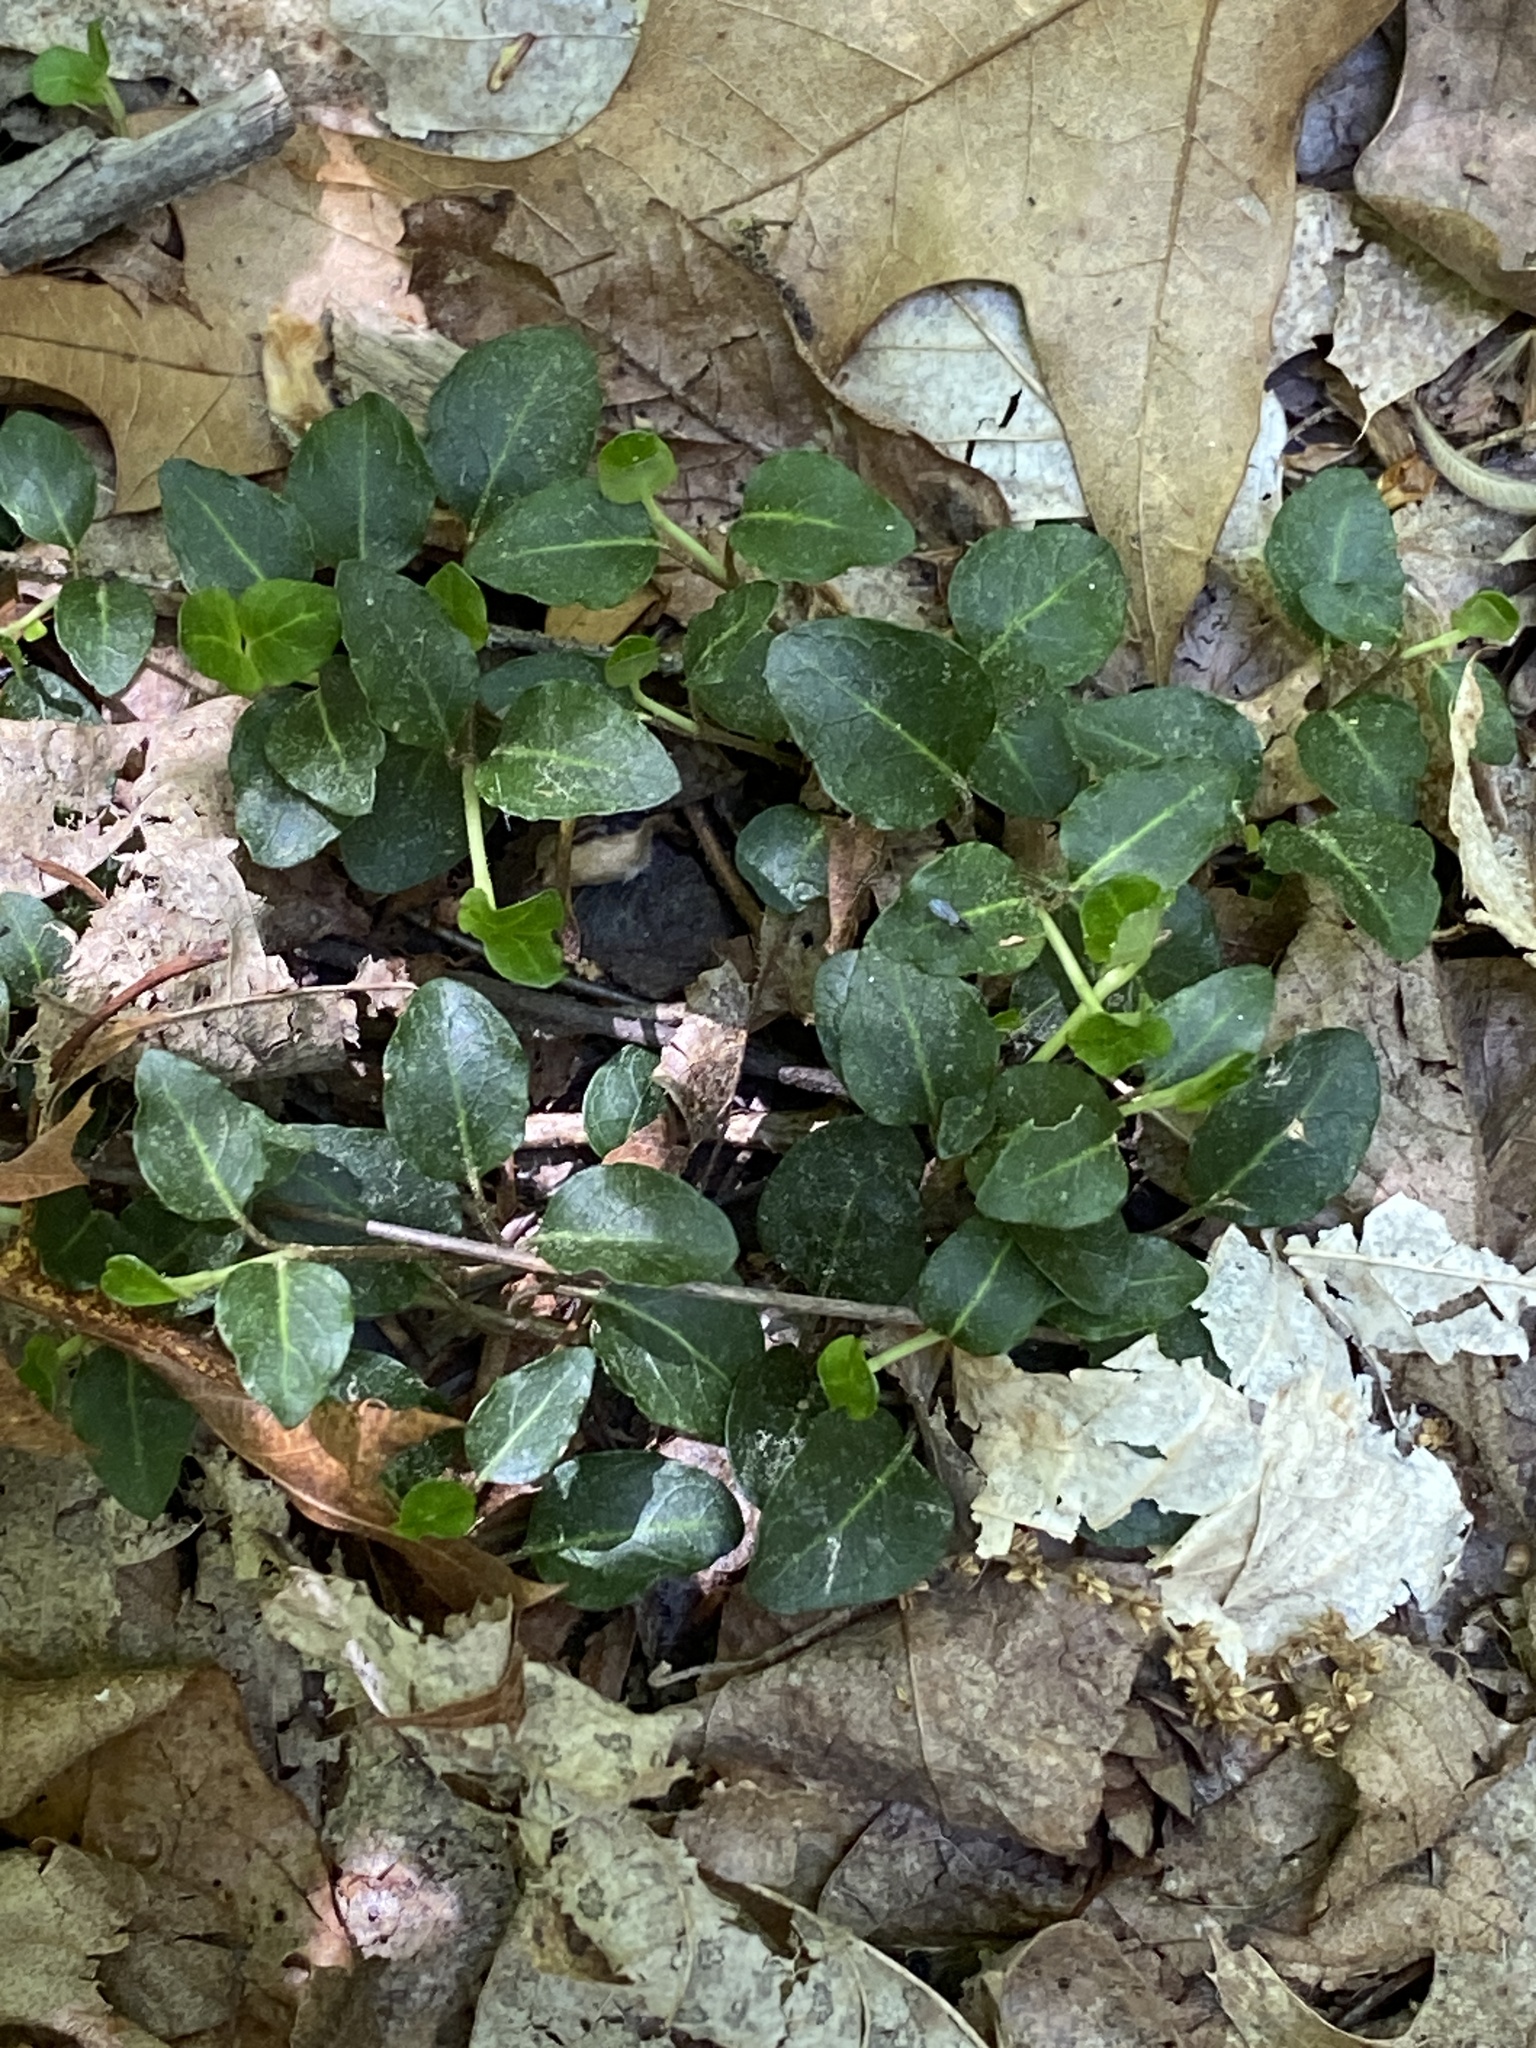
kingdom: Plantae
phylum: Tracheophyta
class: Magnoliopsida
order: Gentianales
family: Rubiaceae
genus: Mitchella
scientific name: Mitchella repens
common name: Partridge-berry
